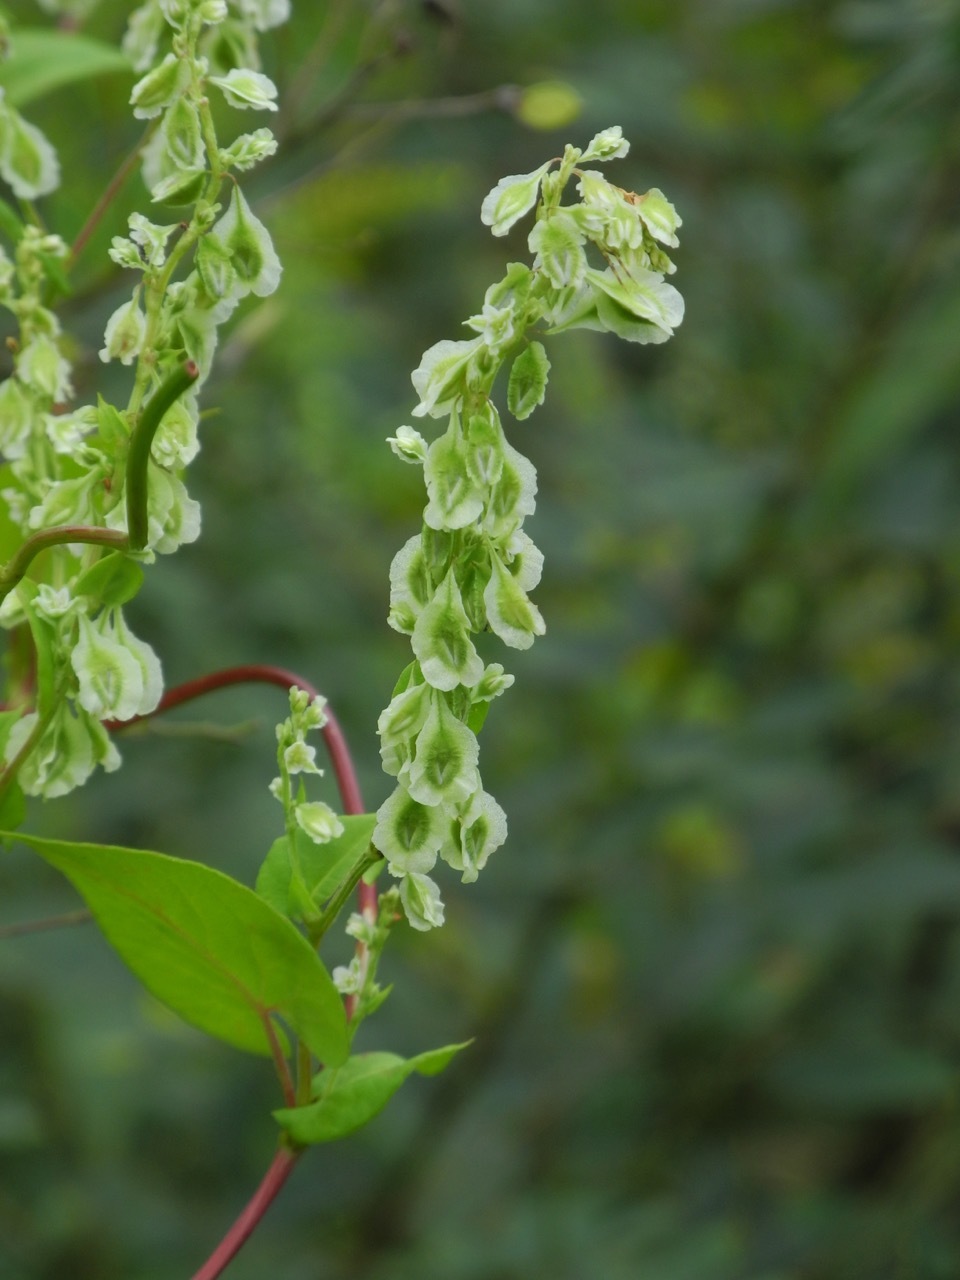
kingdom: Plantae
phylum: Tracheophyta
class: Magnoliopsida
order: Caryophyllales
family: Polygonaceae
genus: Fallopia
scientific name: Fallopia scandens
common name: Climbing false buckwheat
